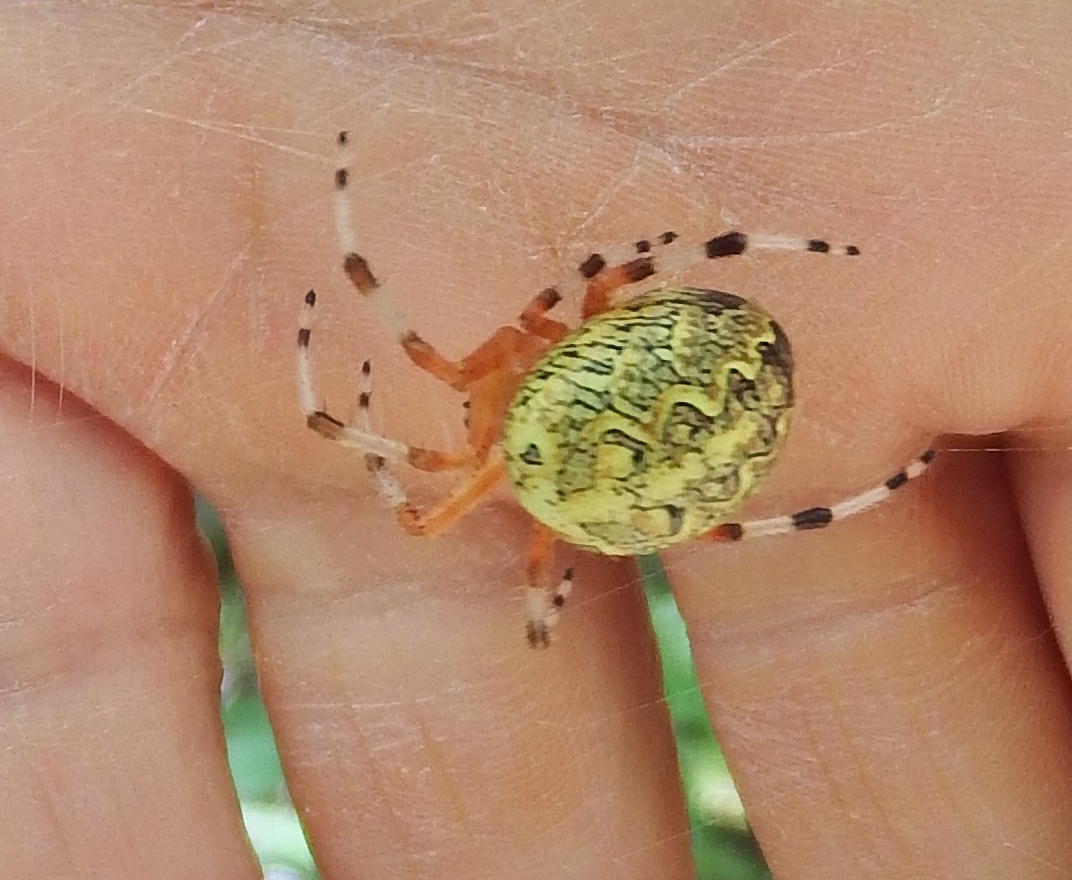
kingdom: Animalia
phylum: Arthropoda
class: Arachnida
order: Araneae
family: Araneidae
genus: Araneus
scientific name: Araneus marmoreus
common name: Marbled orbweaver
